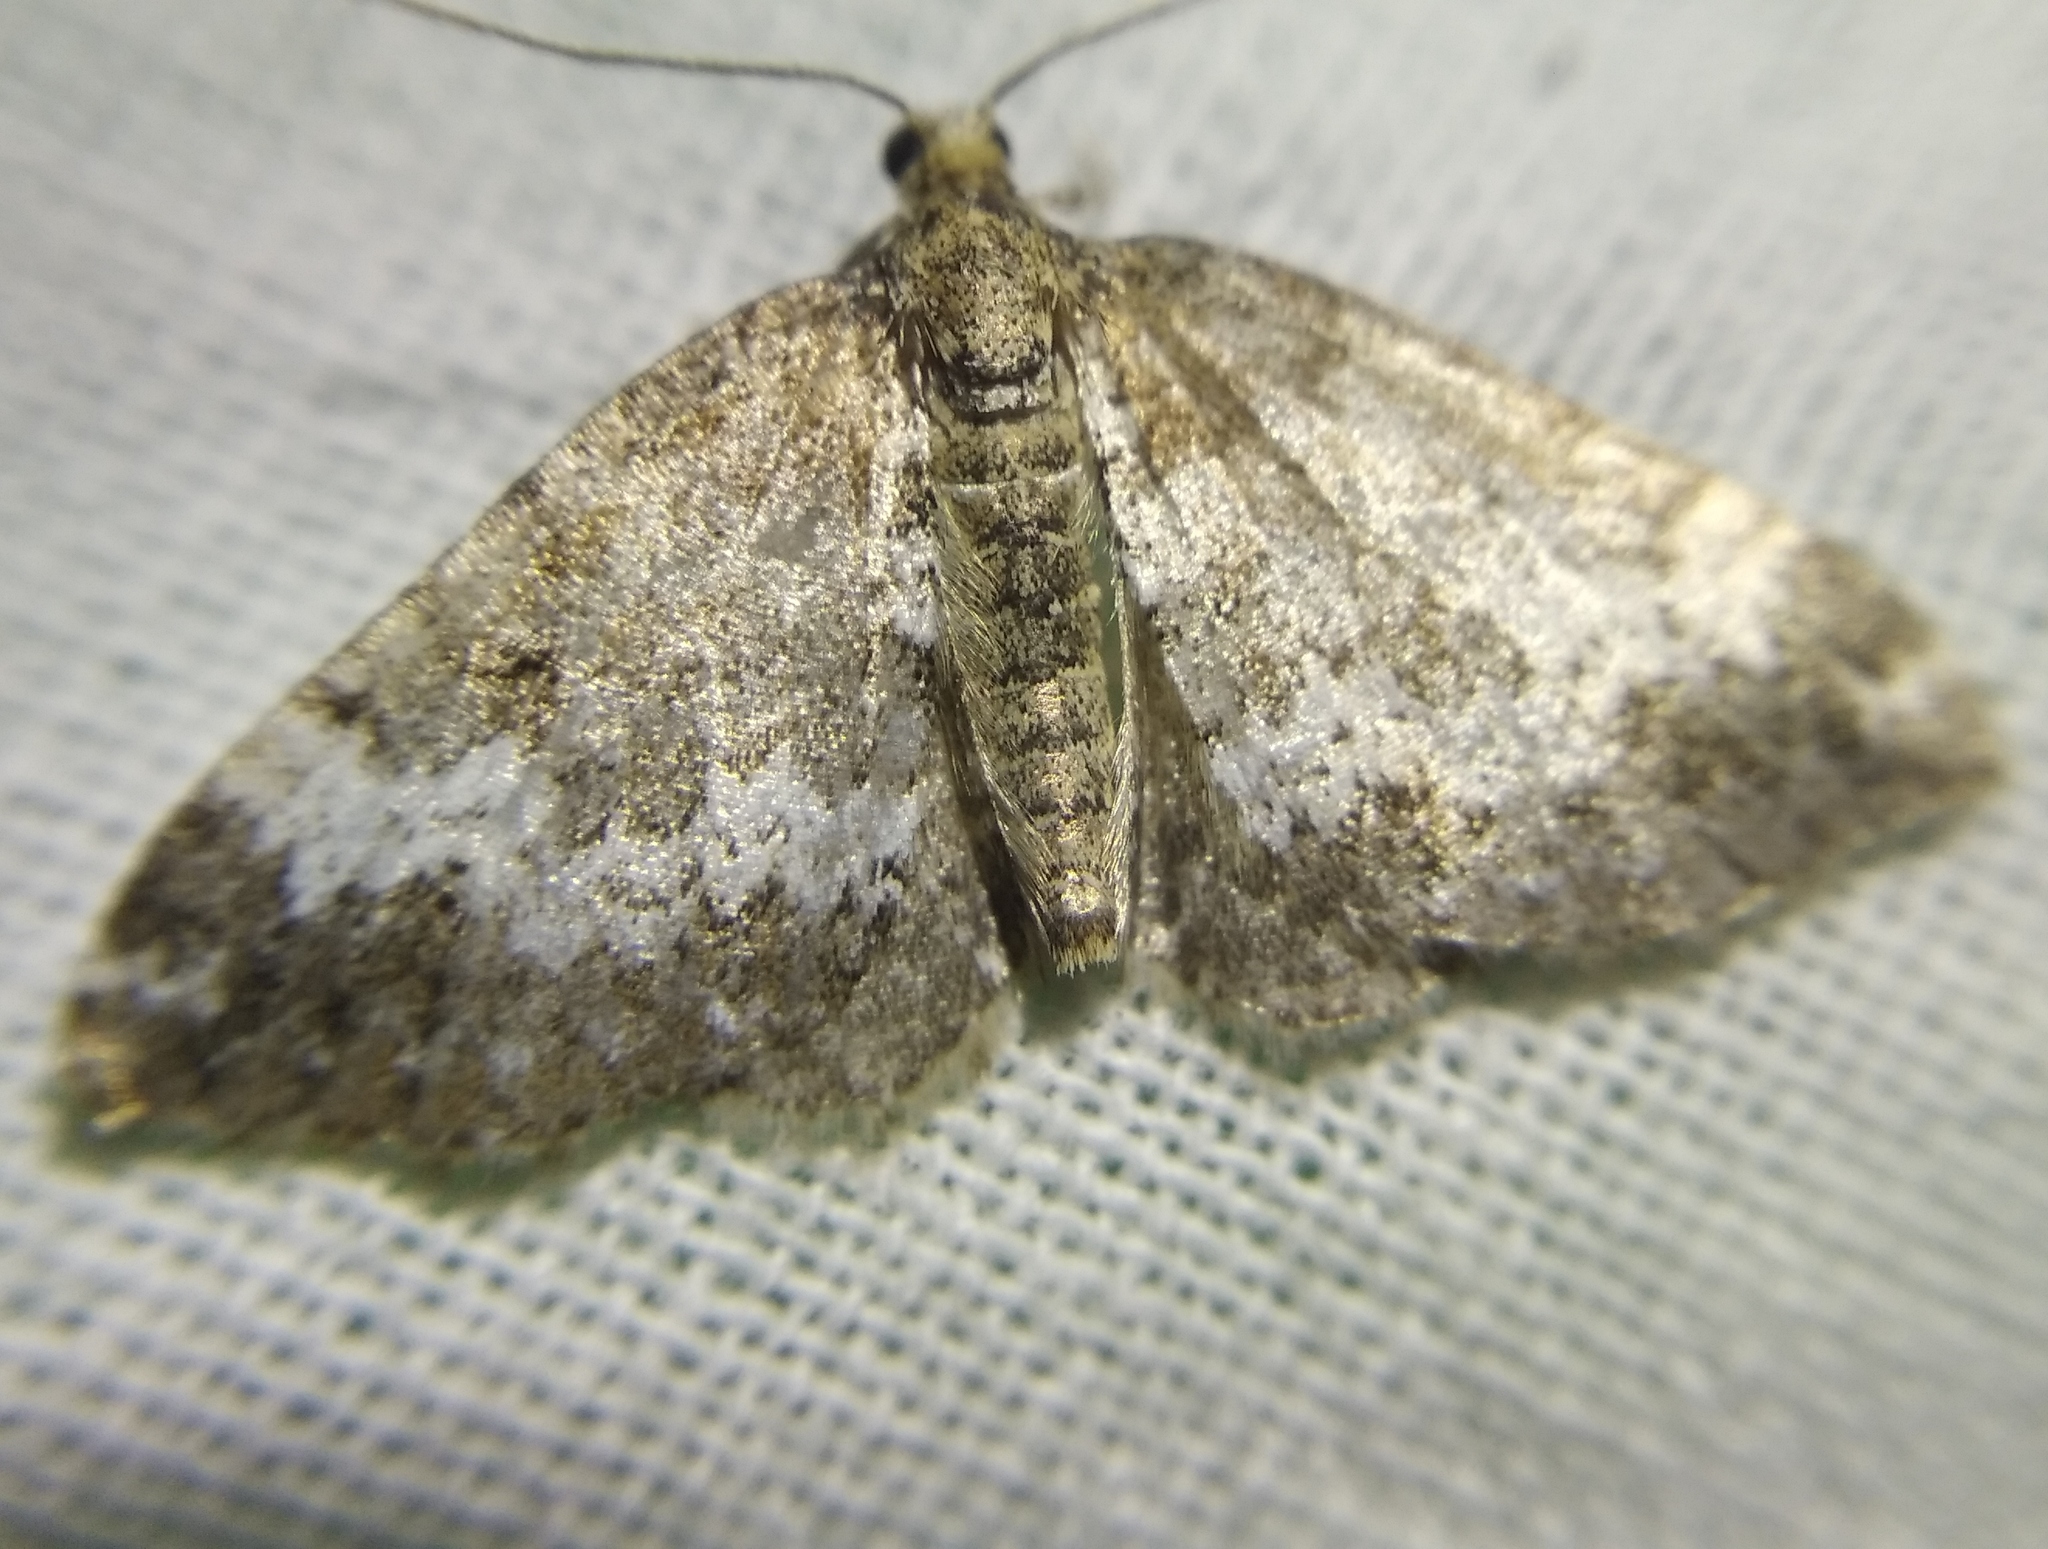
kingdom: Animalia
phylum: Arthropoda
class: Insecta
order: Lepidoptera
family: Geometridae
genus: Perizoma
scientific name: Perizoma alchemillata
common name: Small rivulet
